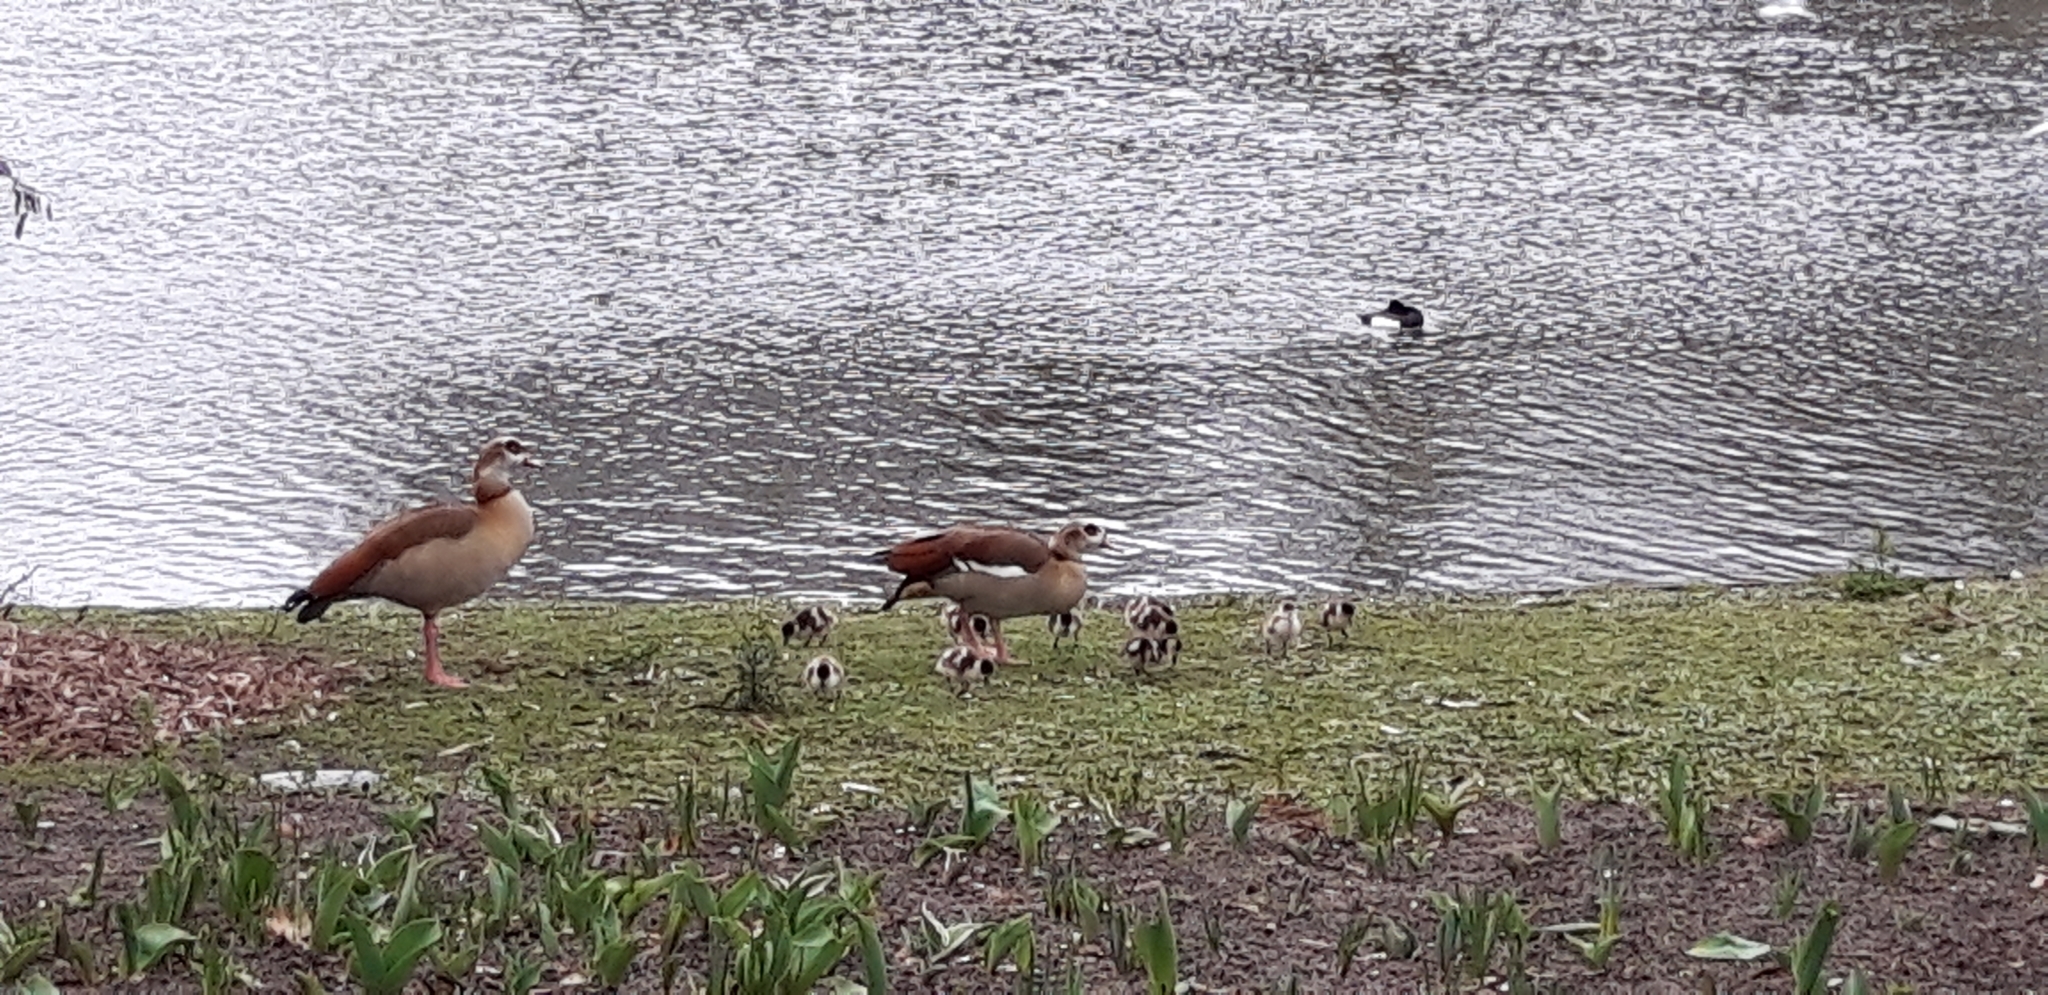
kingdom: Animalia
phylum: Chordata
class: Aves
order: Anseriformes
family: Anatidae
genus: Alopochen
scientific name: Alopochen aegyptiaca
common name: Egyptian goose
